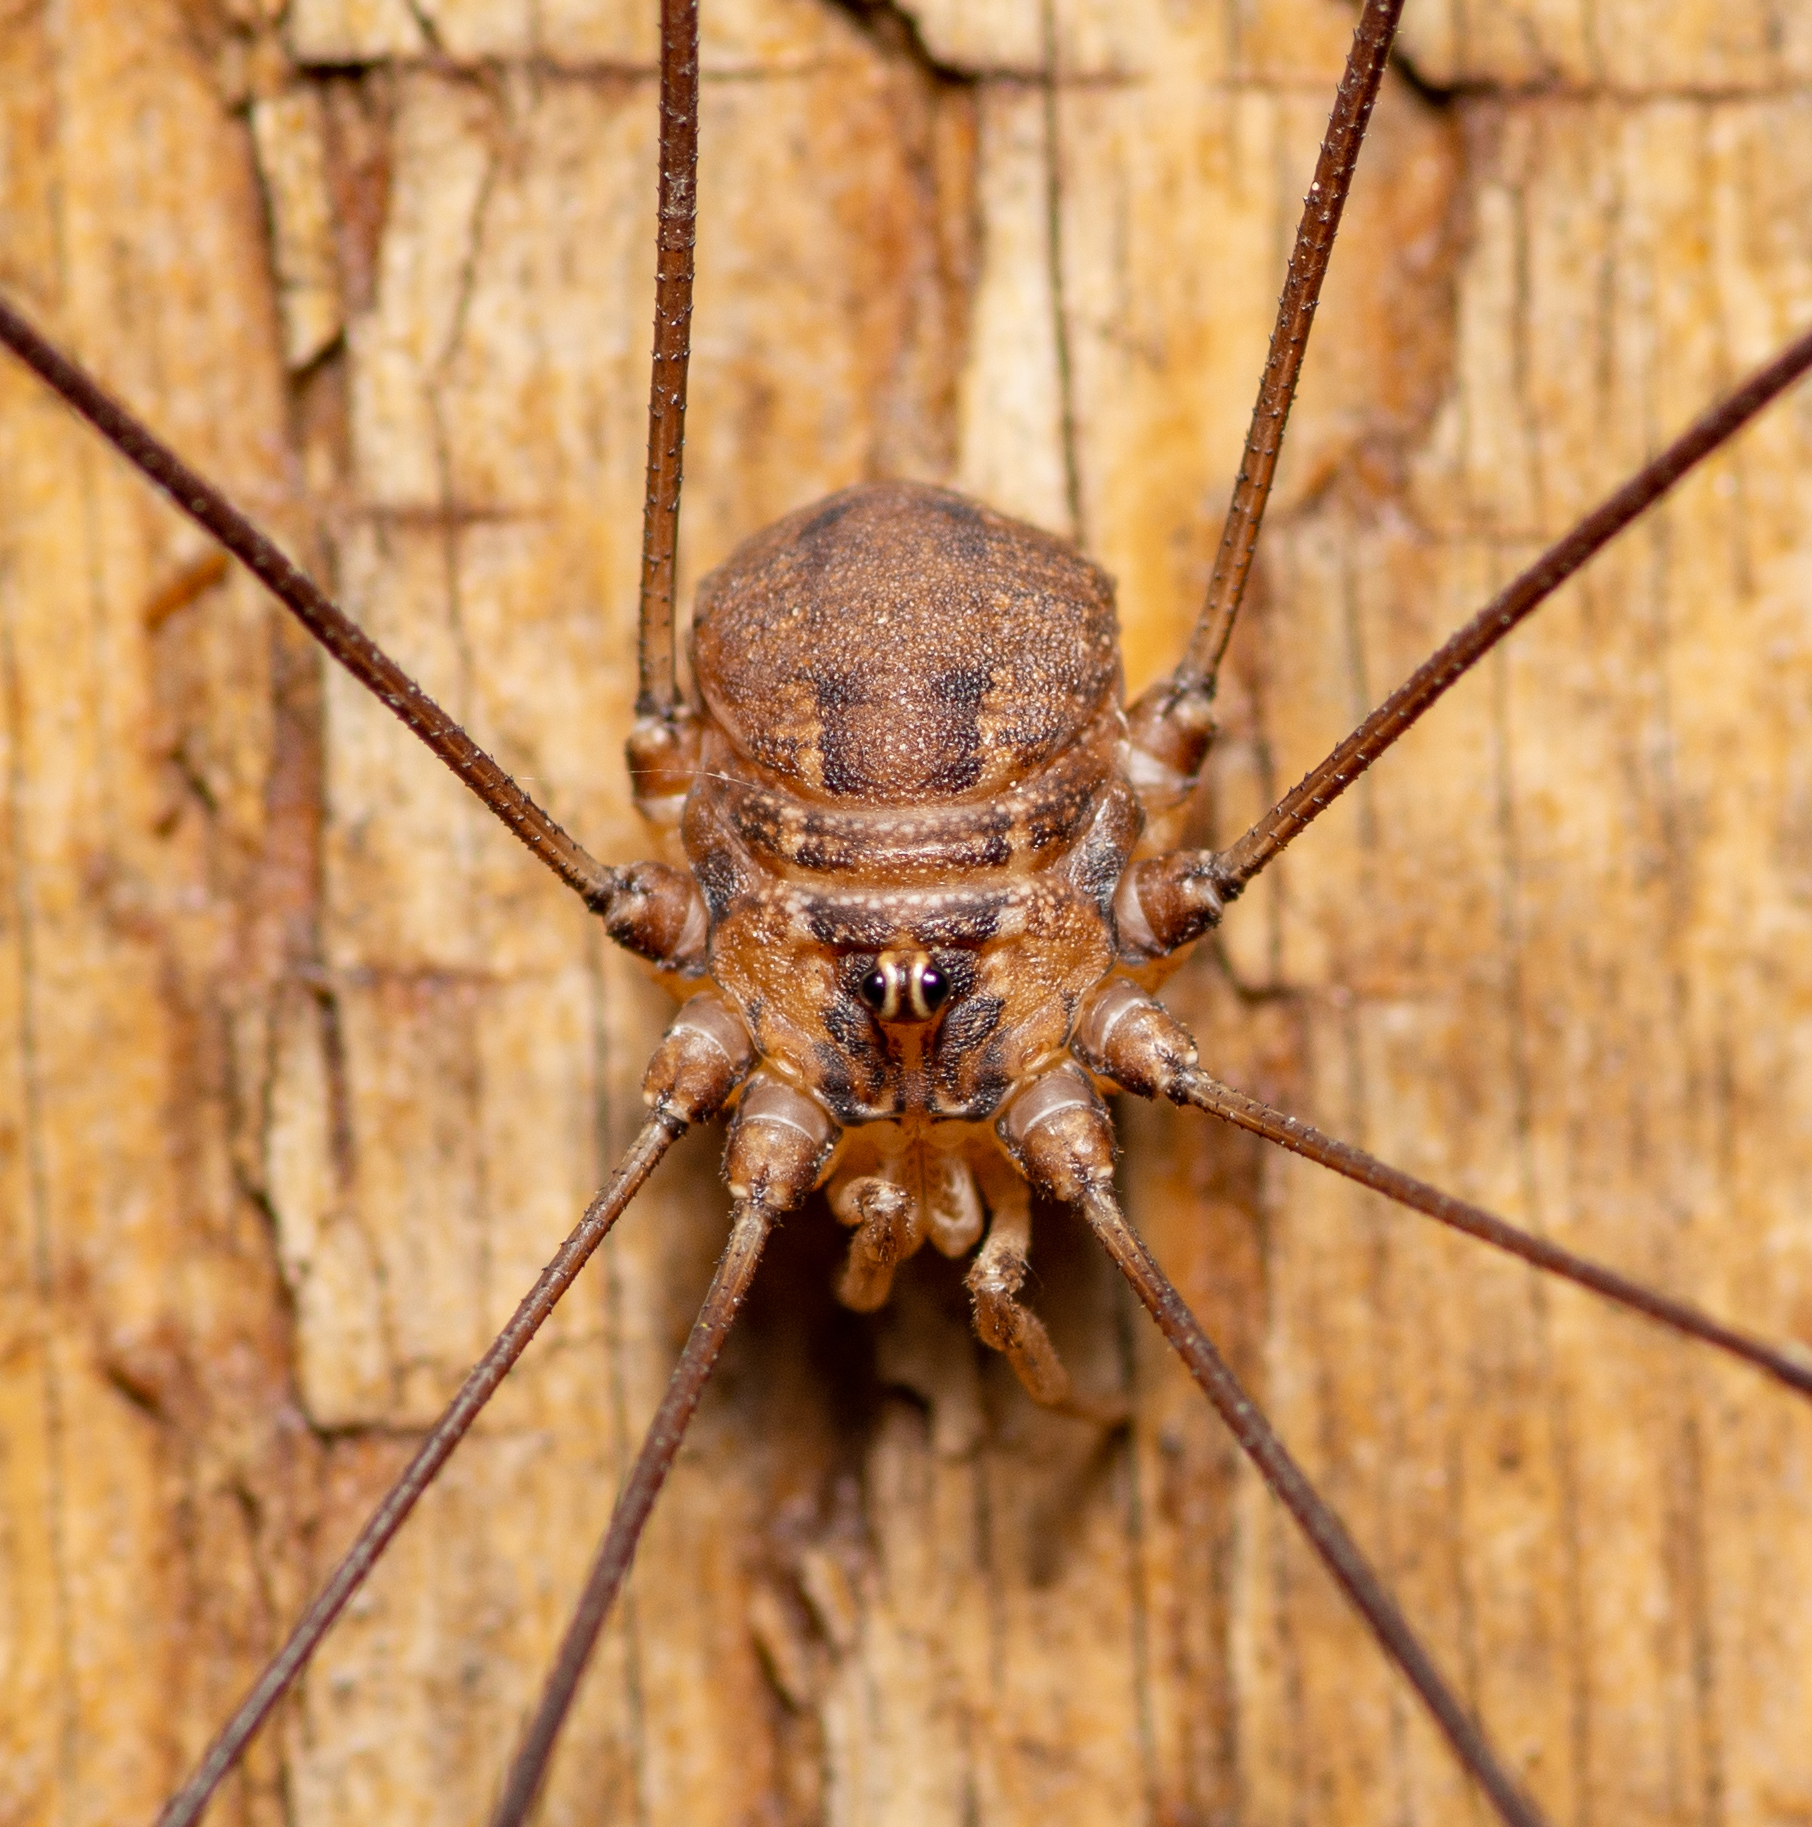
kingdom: Animalia
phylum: Arthropoda
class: Arachnida
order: Opiliones
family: Sclerosomatidae
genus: Leiobunum
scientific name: Leiobunum townsendi
